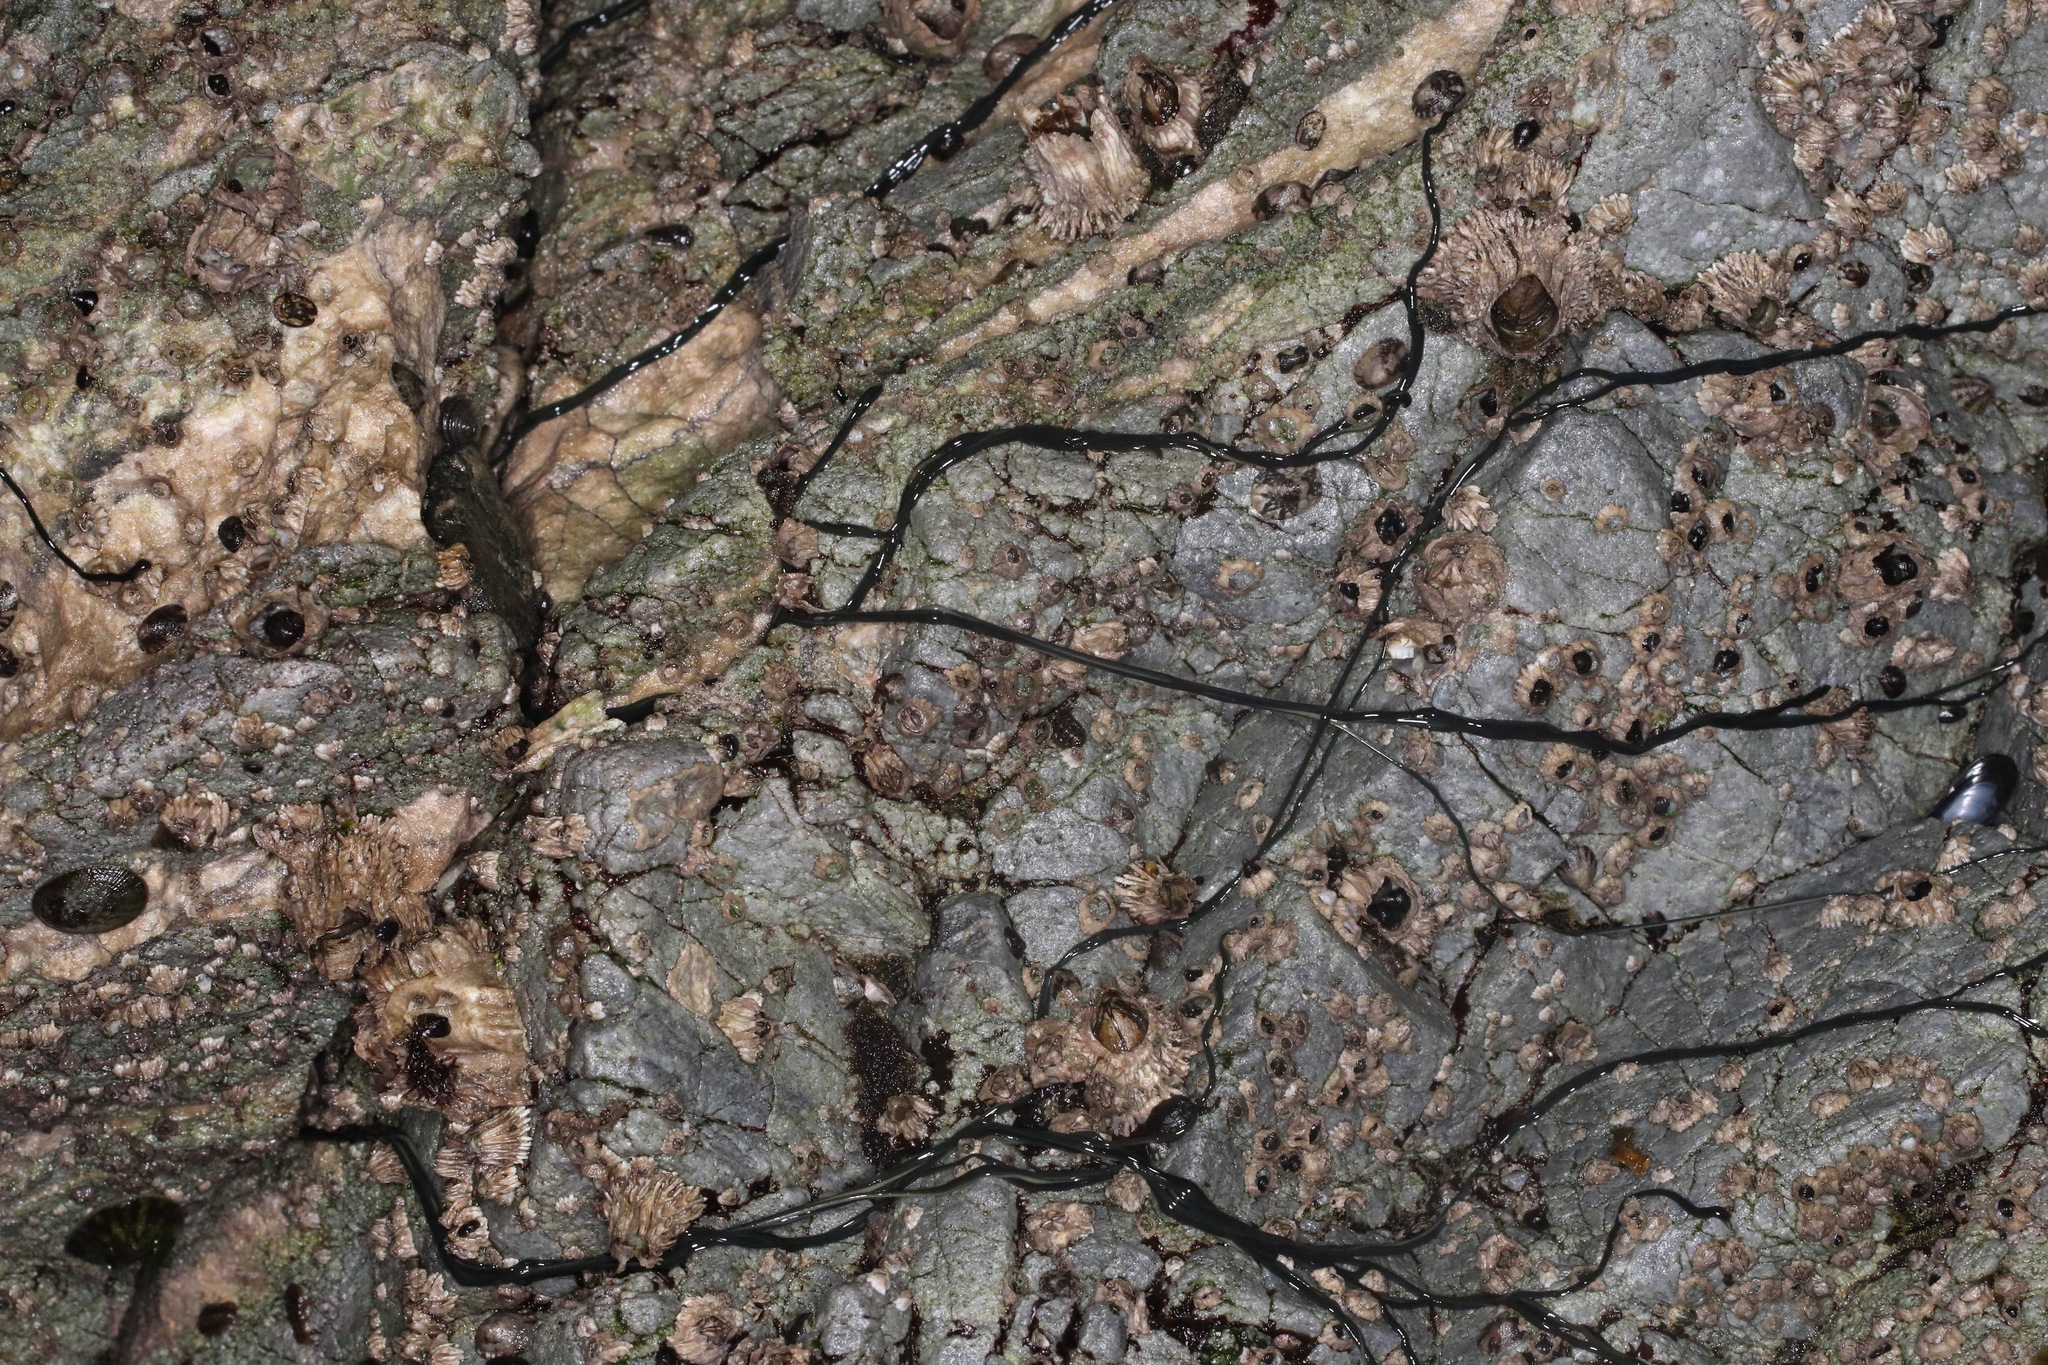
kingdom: Animalia
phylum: Nemertea
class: Hoplonemertea
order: Monostilifera
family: Emplectonematidae
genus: Emplectonema
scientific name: Emplectonema gracile
